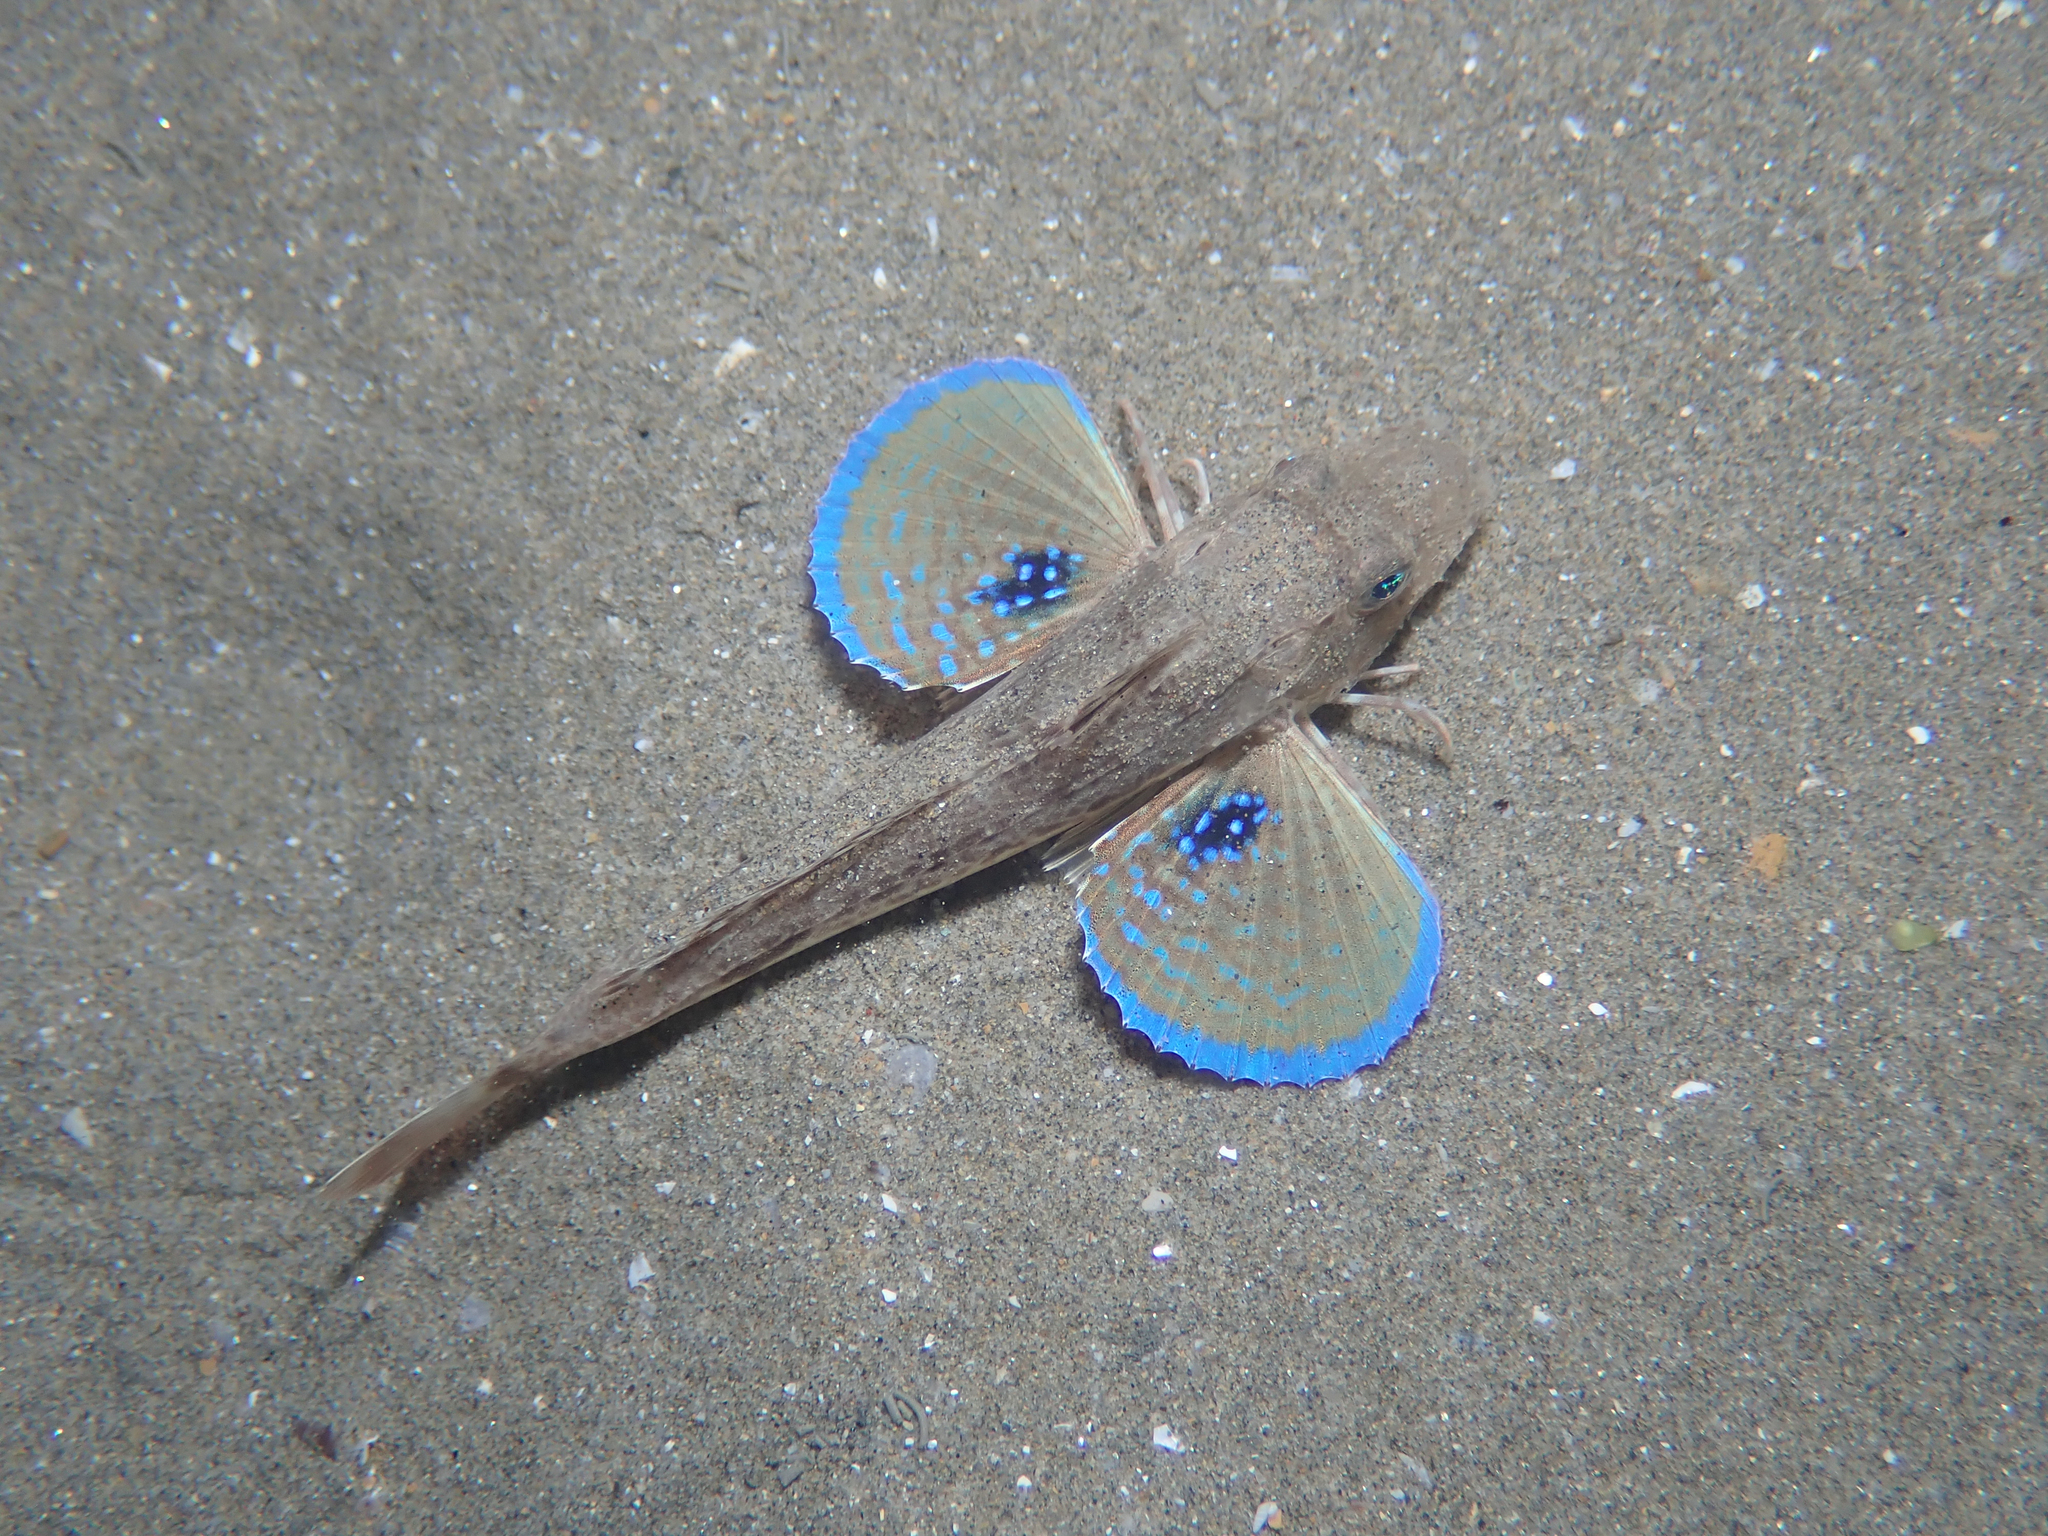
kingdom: Animalia
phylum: Chordata
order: Scorpaeniformes
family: Triglidae
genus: Chelidonichthys
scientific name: Chelidonichthys lucerna
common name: Tub gurnard
